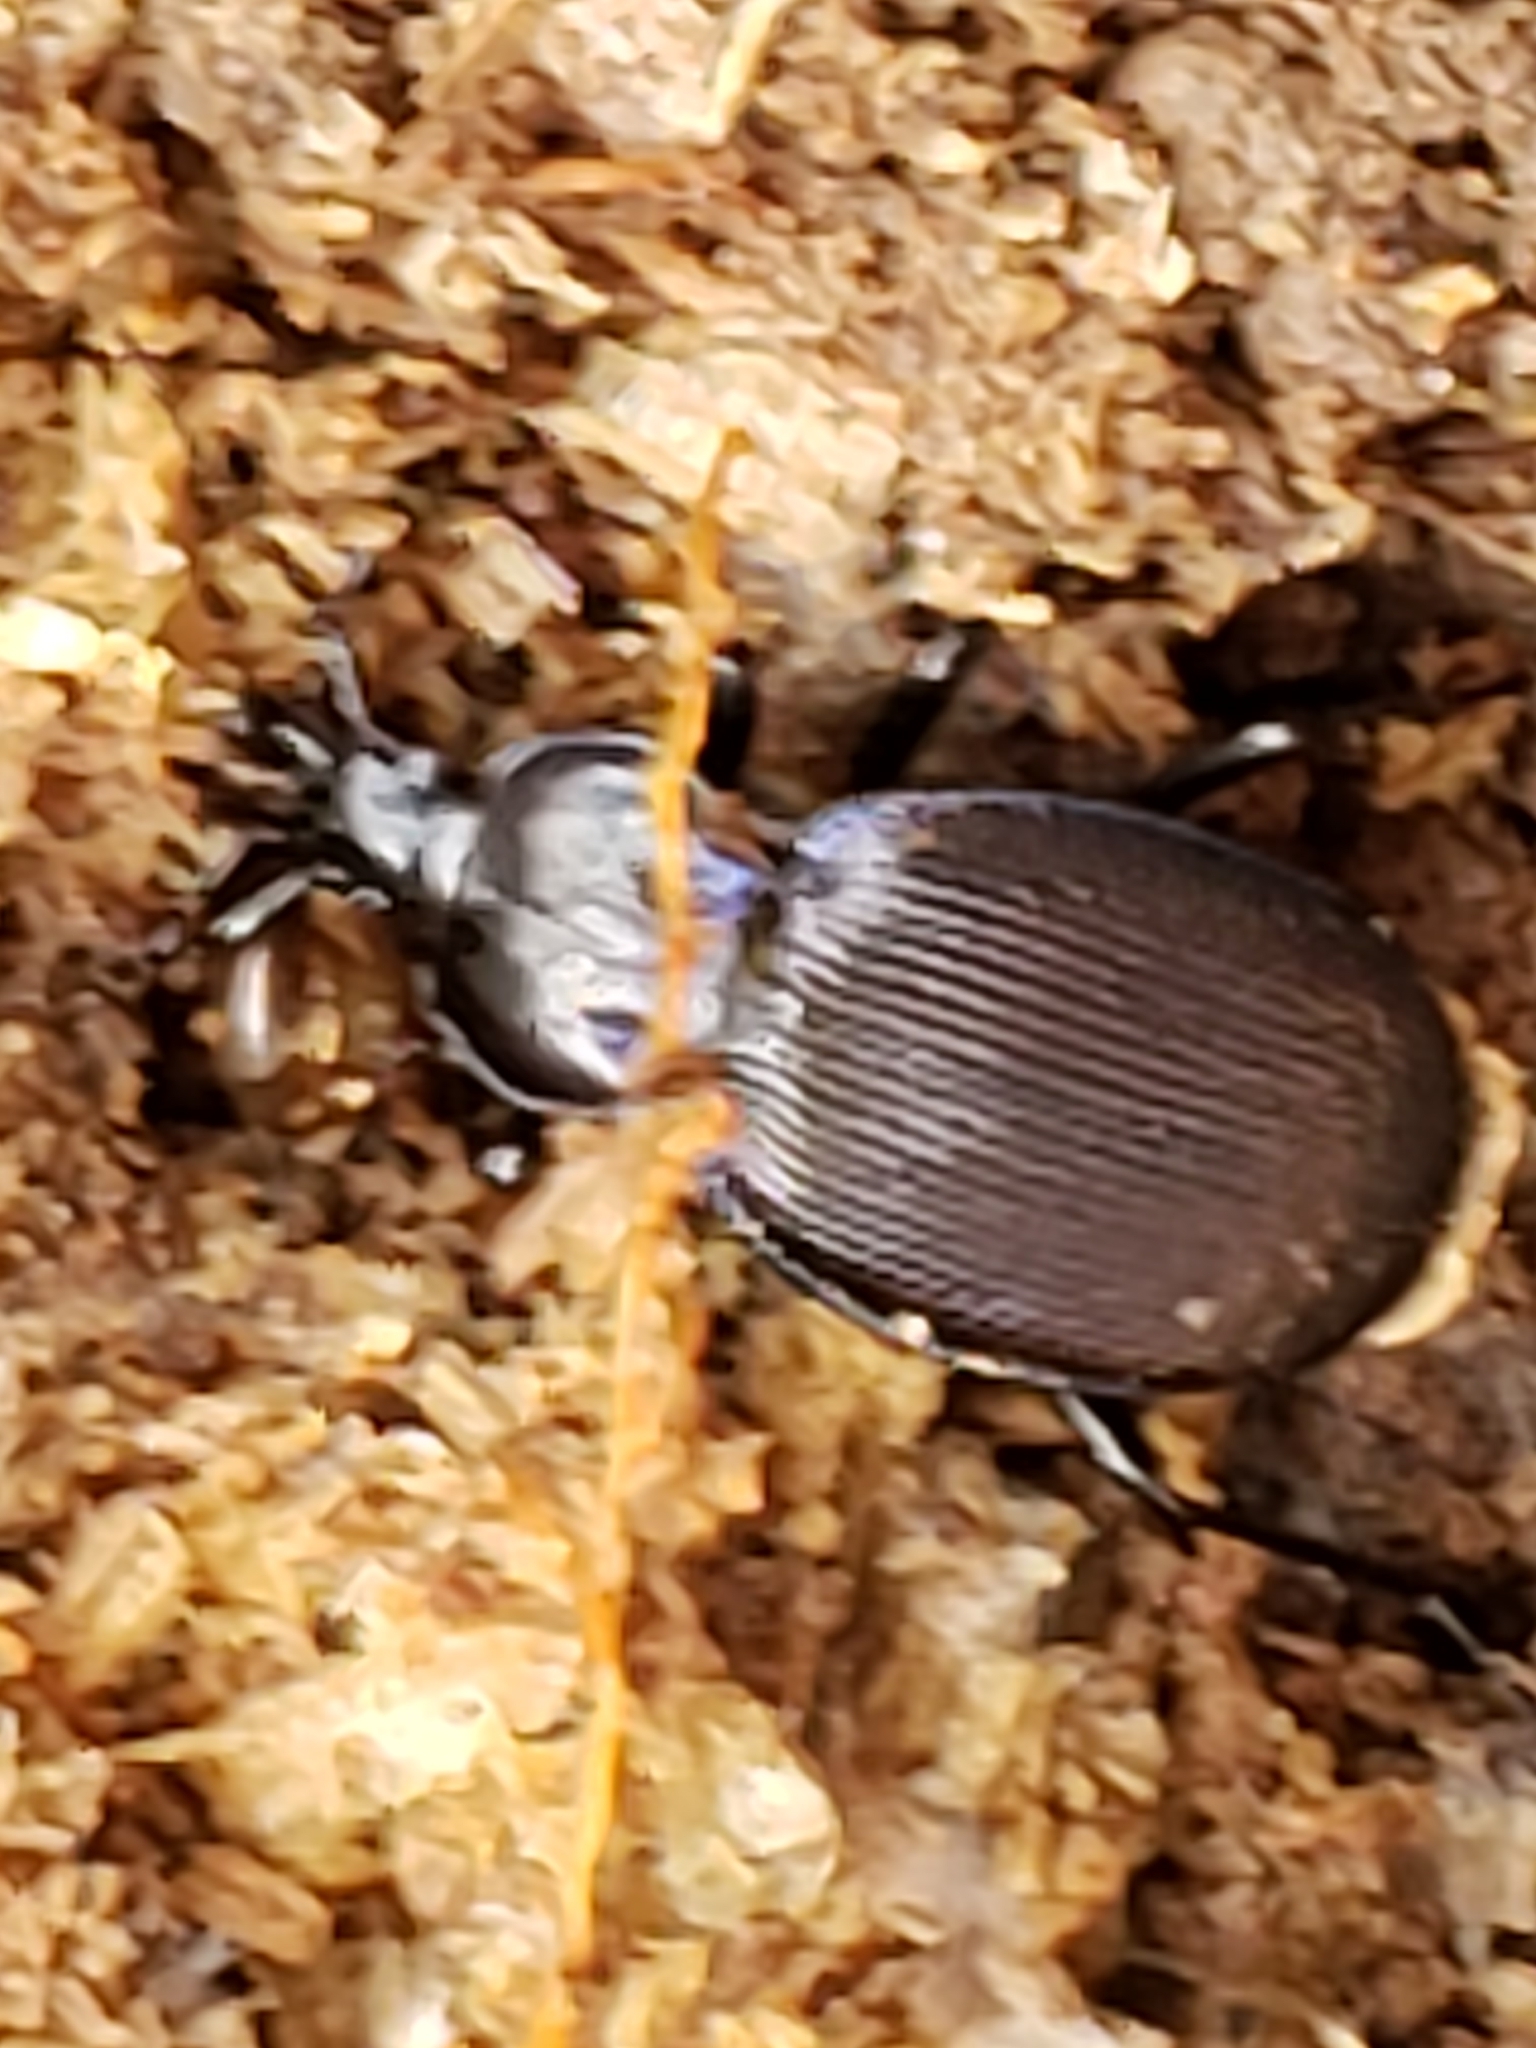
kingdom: Animalia
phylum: Arthropoda
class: Insecta
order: Coleoptera
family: Carabidae
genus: Sphaeroderus
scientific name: Sphaeroderus stenostomus
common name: Small snail-eating ground beetle
